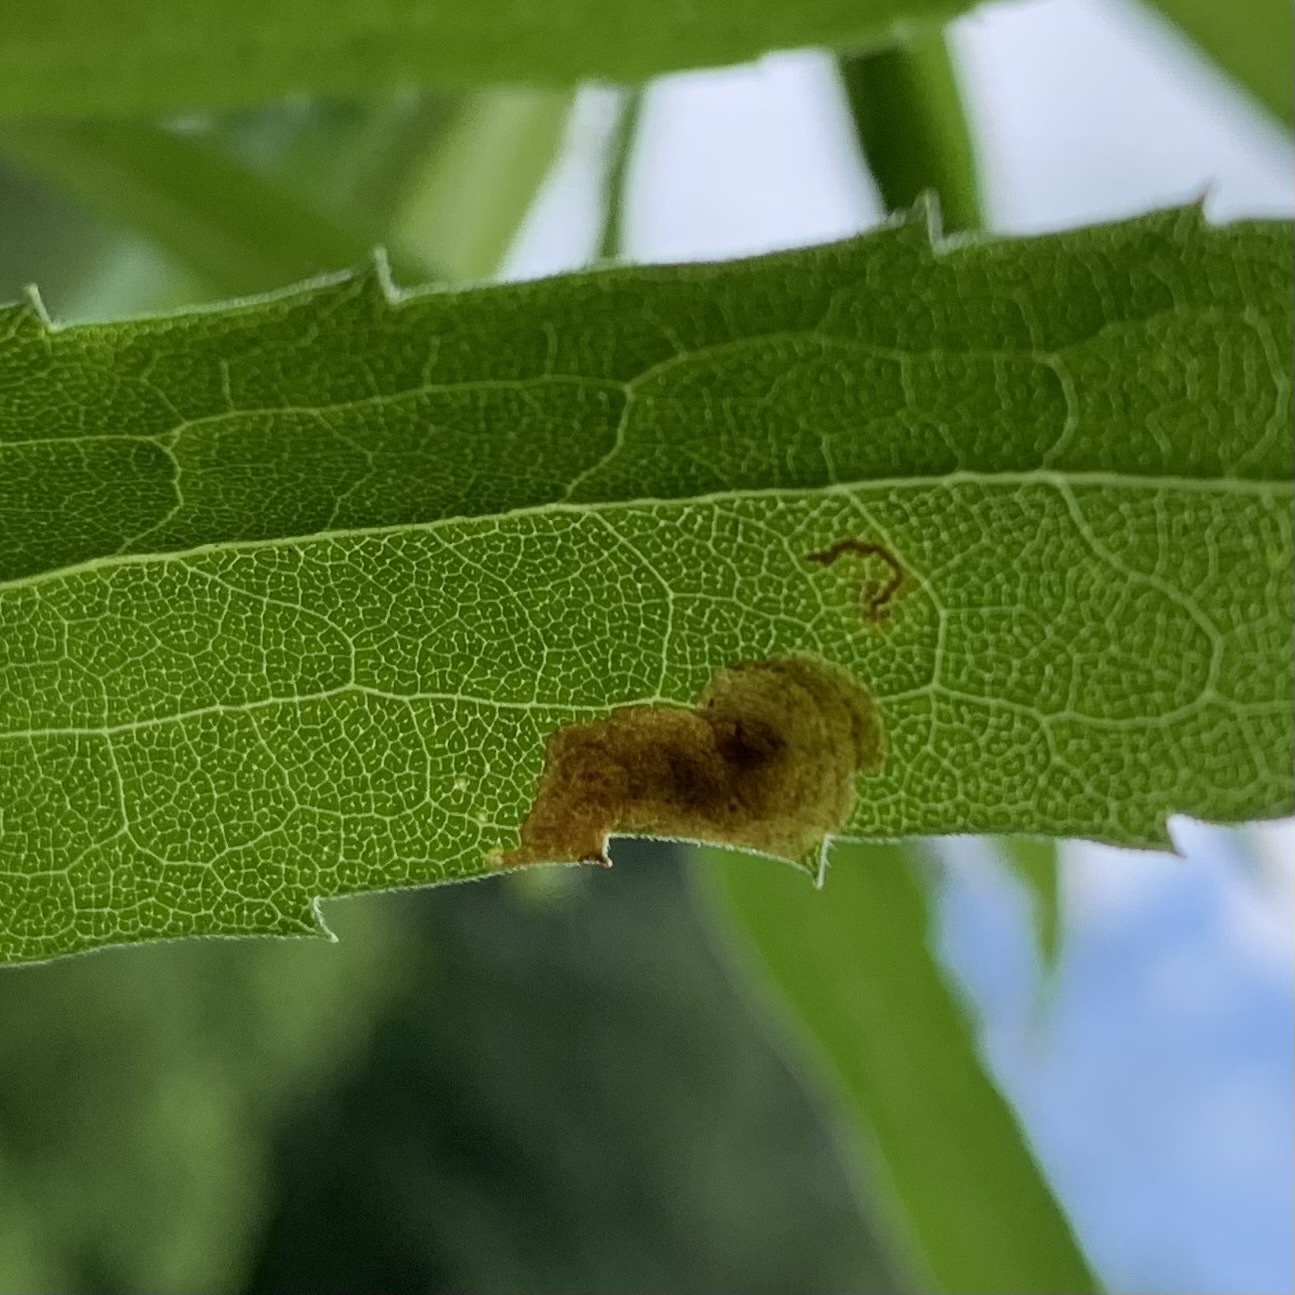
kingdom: Animalia
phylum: Arthropoda
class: Insecta
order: Diptera
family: Agromyzidae
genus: Nemorimyza
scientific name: Nemorimyza posticata
